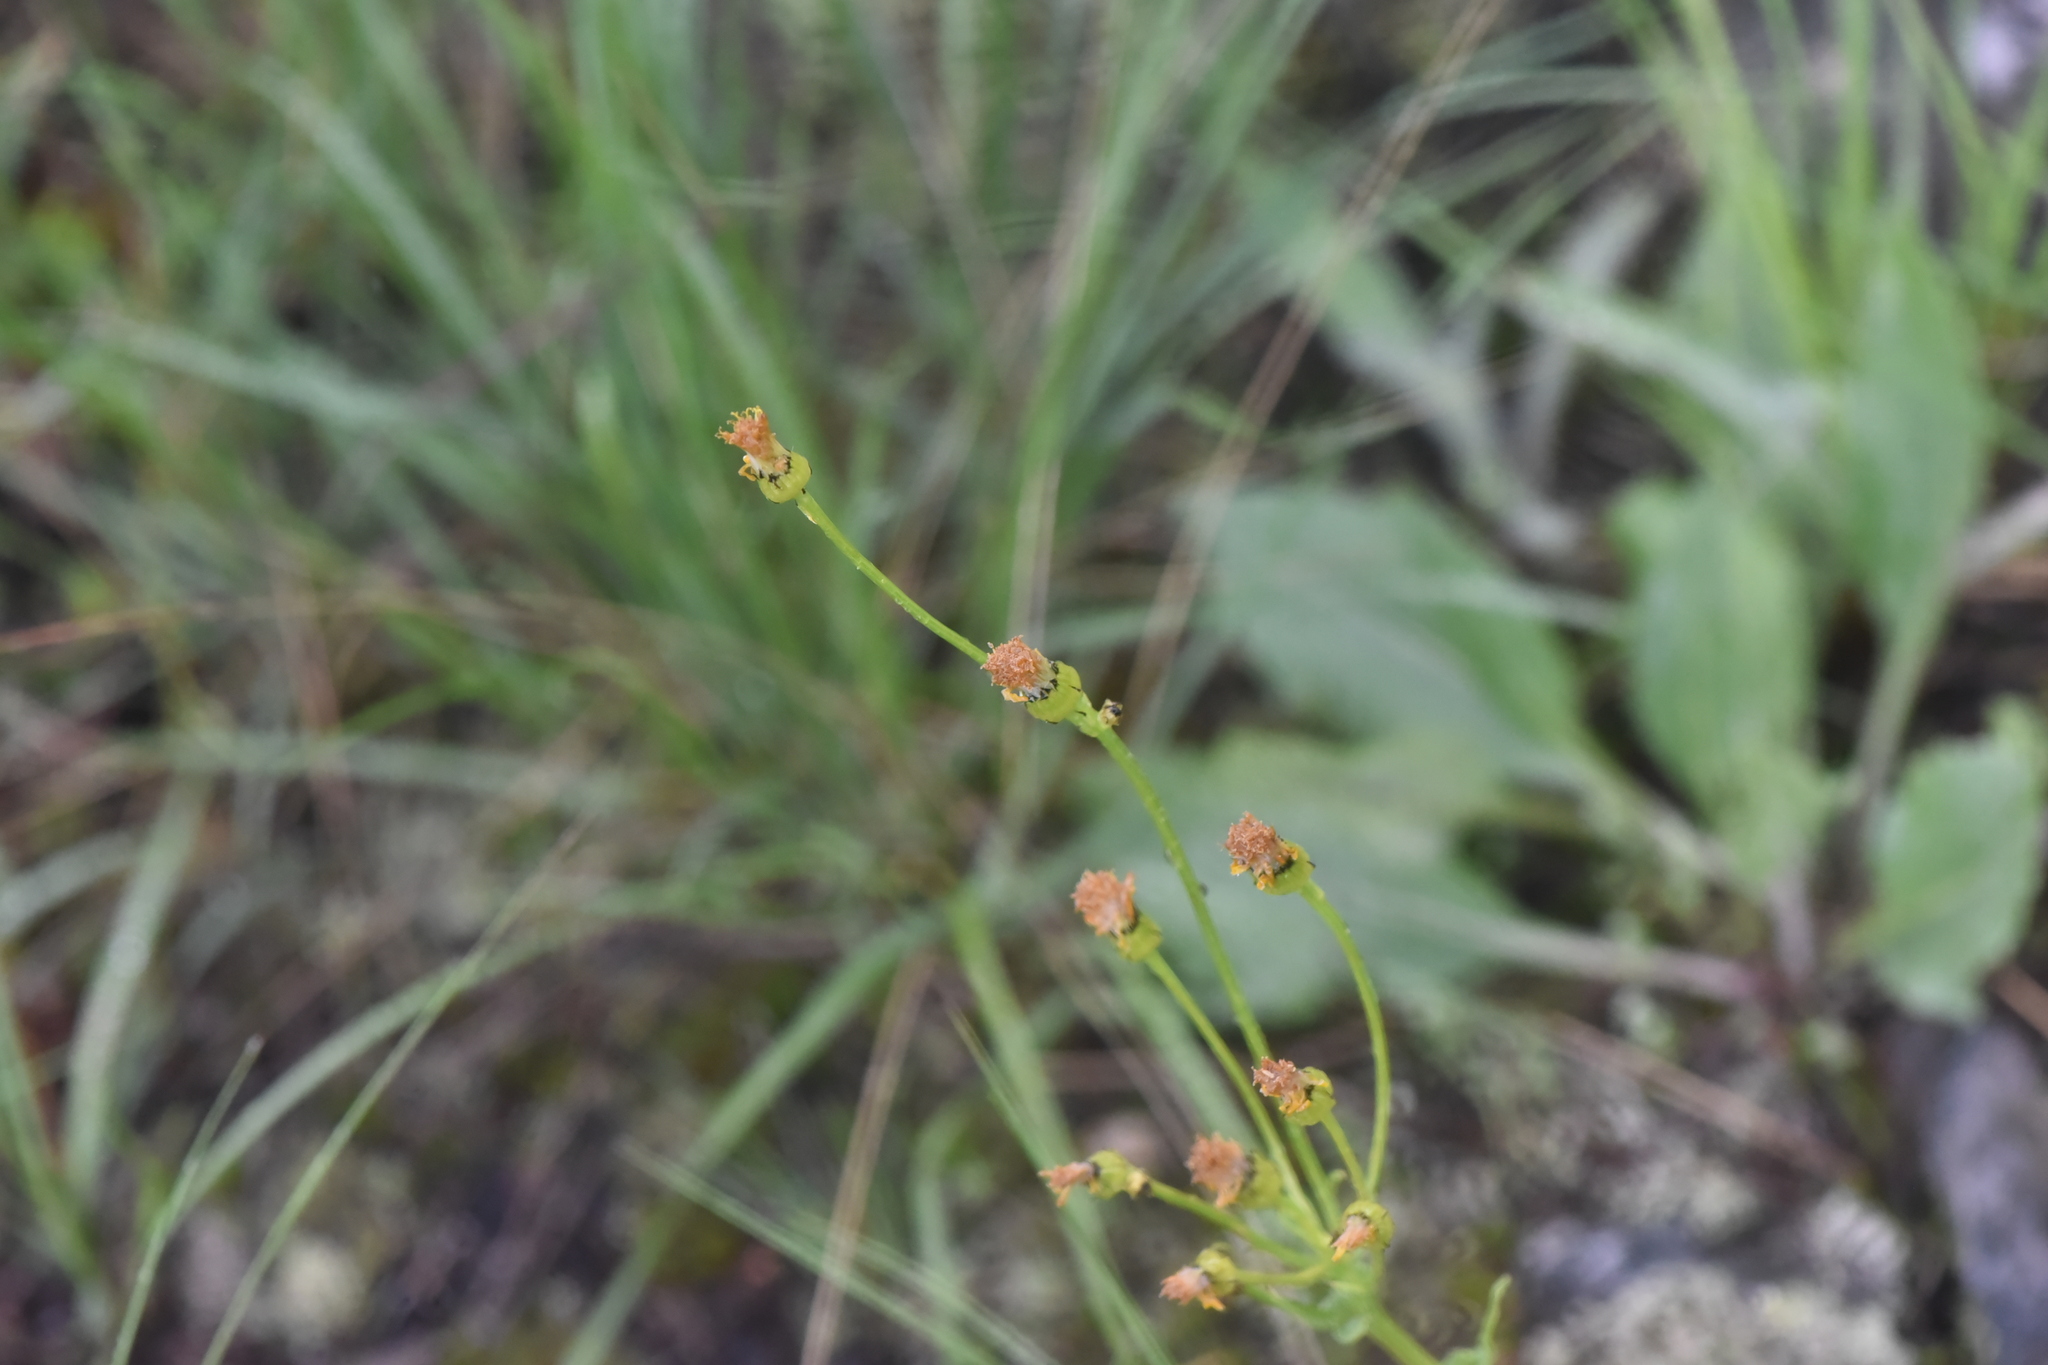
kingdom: Plantae
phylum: Tracheophyta
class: Magnoliopsida
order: Asterales
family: Asteraceae
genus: Senecio
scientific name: Senecio integerrimus
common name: Gaugeplant
